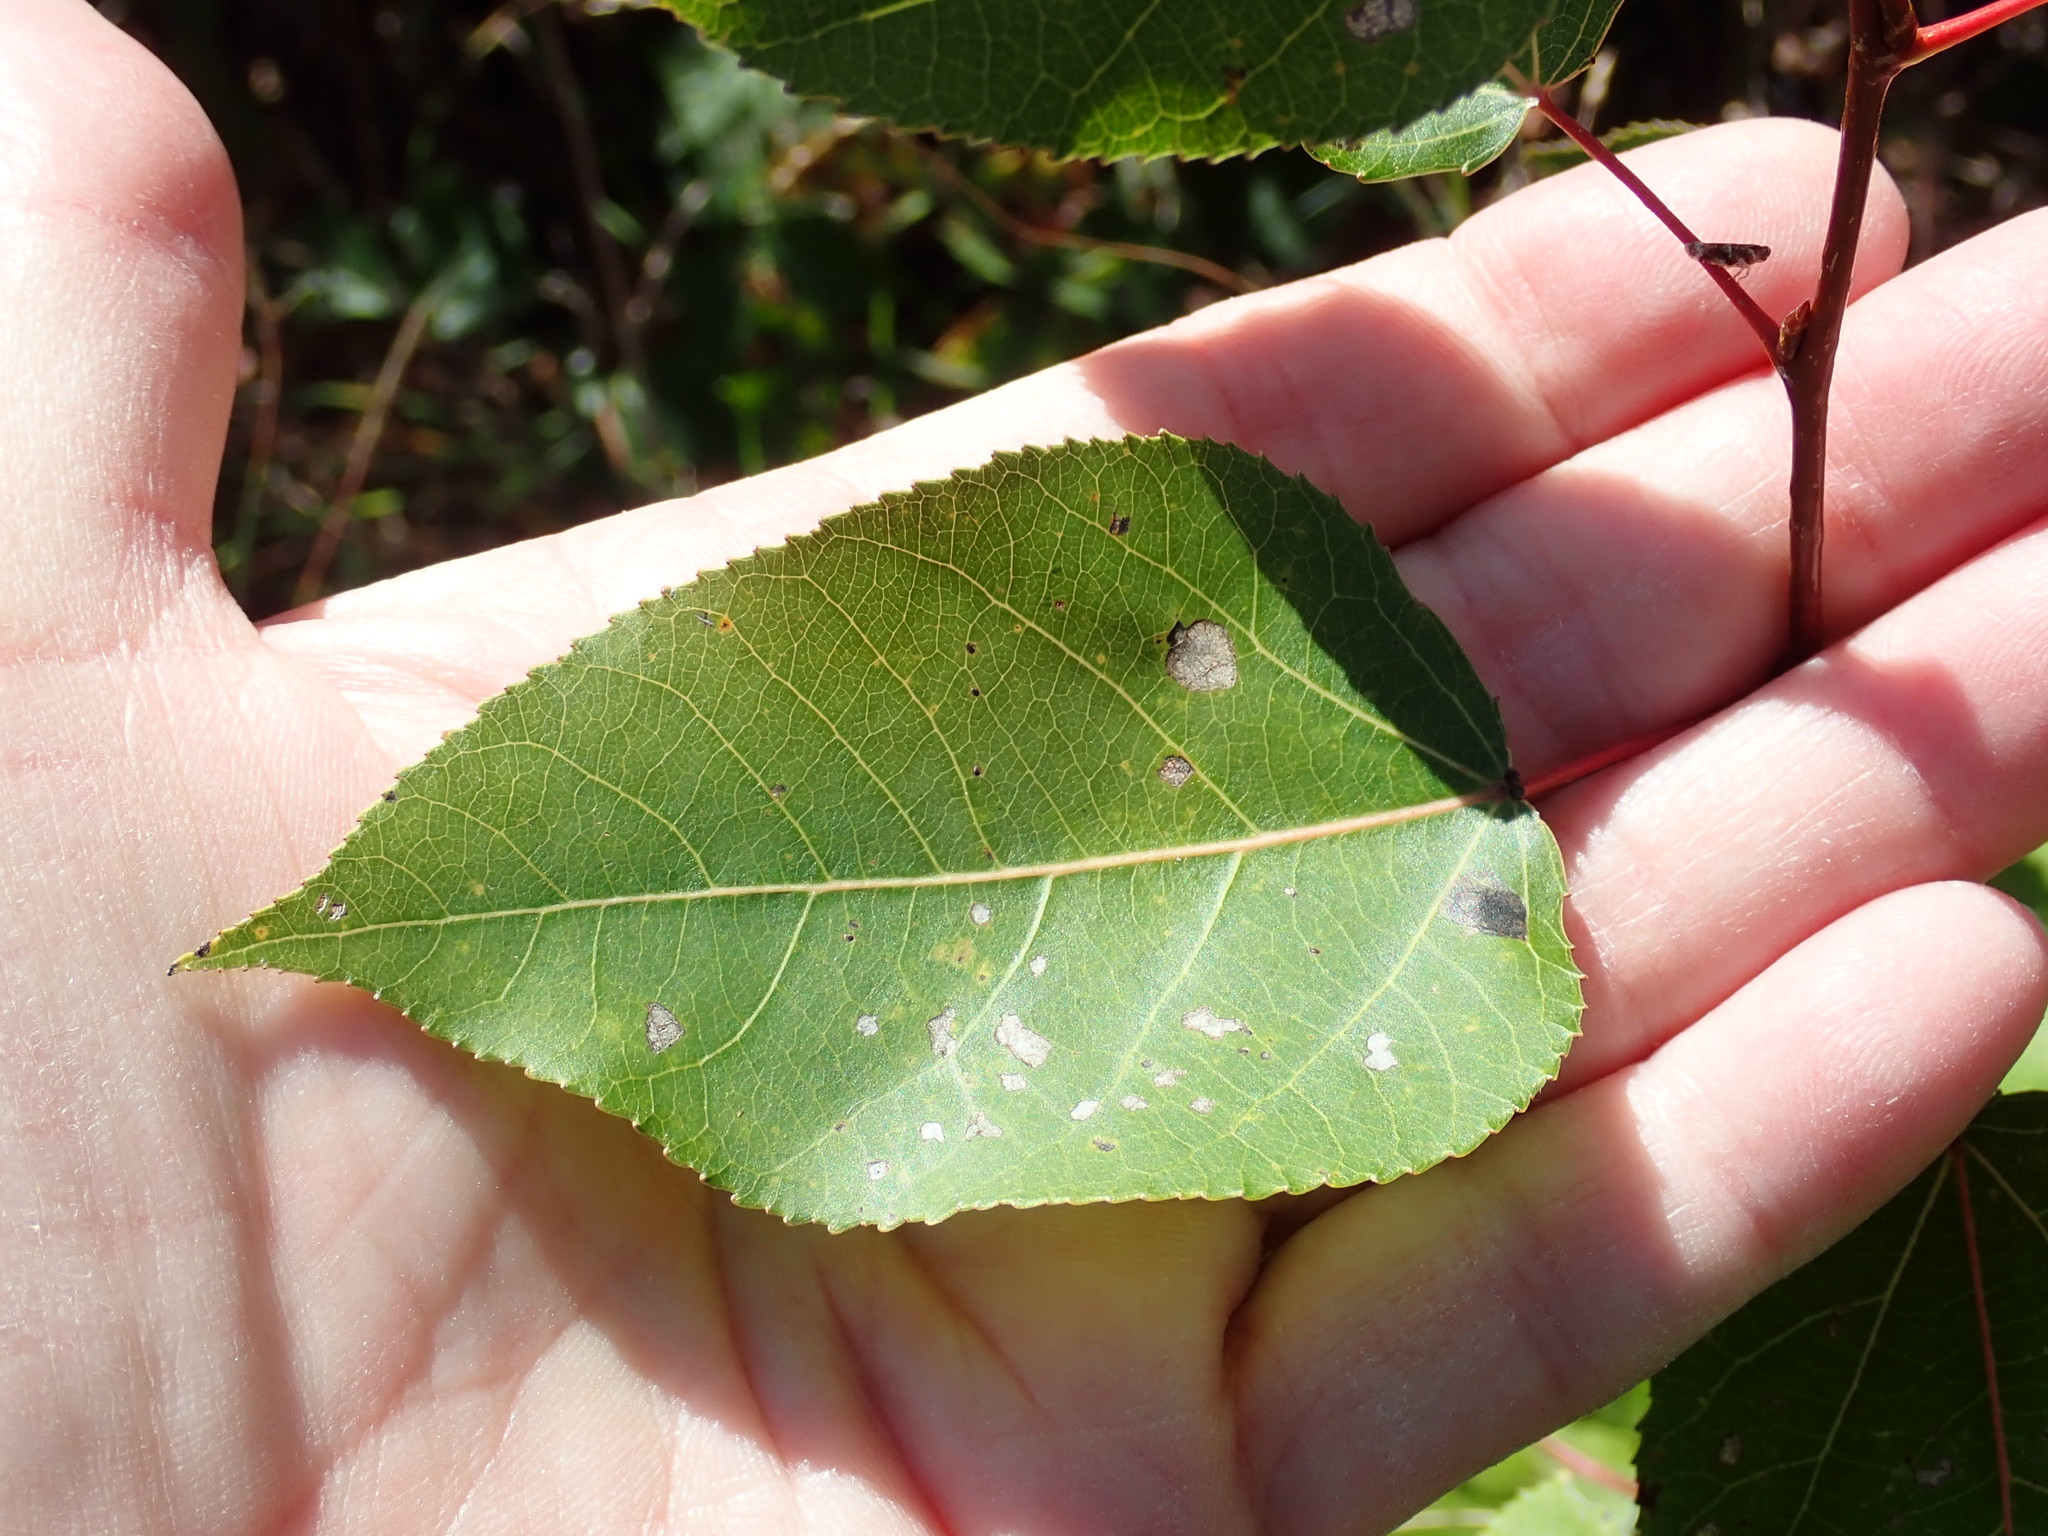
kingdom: Plantae
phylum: Tracheophyta
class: Magnoliopsida
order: Malpighiales
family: Salicaceae
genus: Populus
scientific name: Populus
